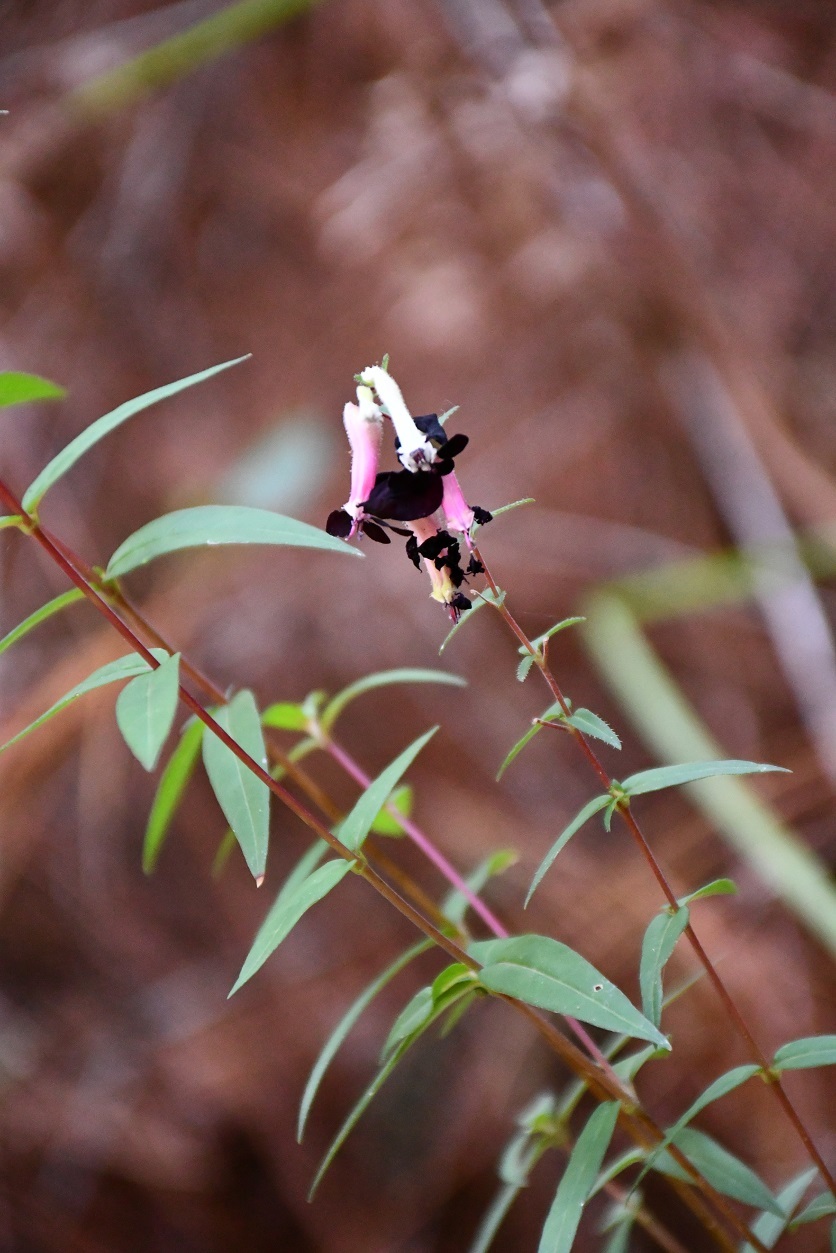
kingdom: Plantae
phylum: Tracheophyta
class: Magnoliopsida
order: Myrtales
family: Lythraceae
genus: Cuphea
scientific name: Cuphea avigera
